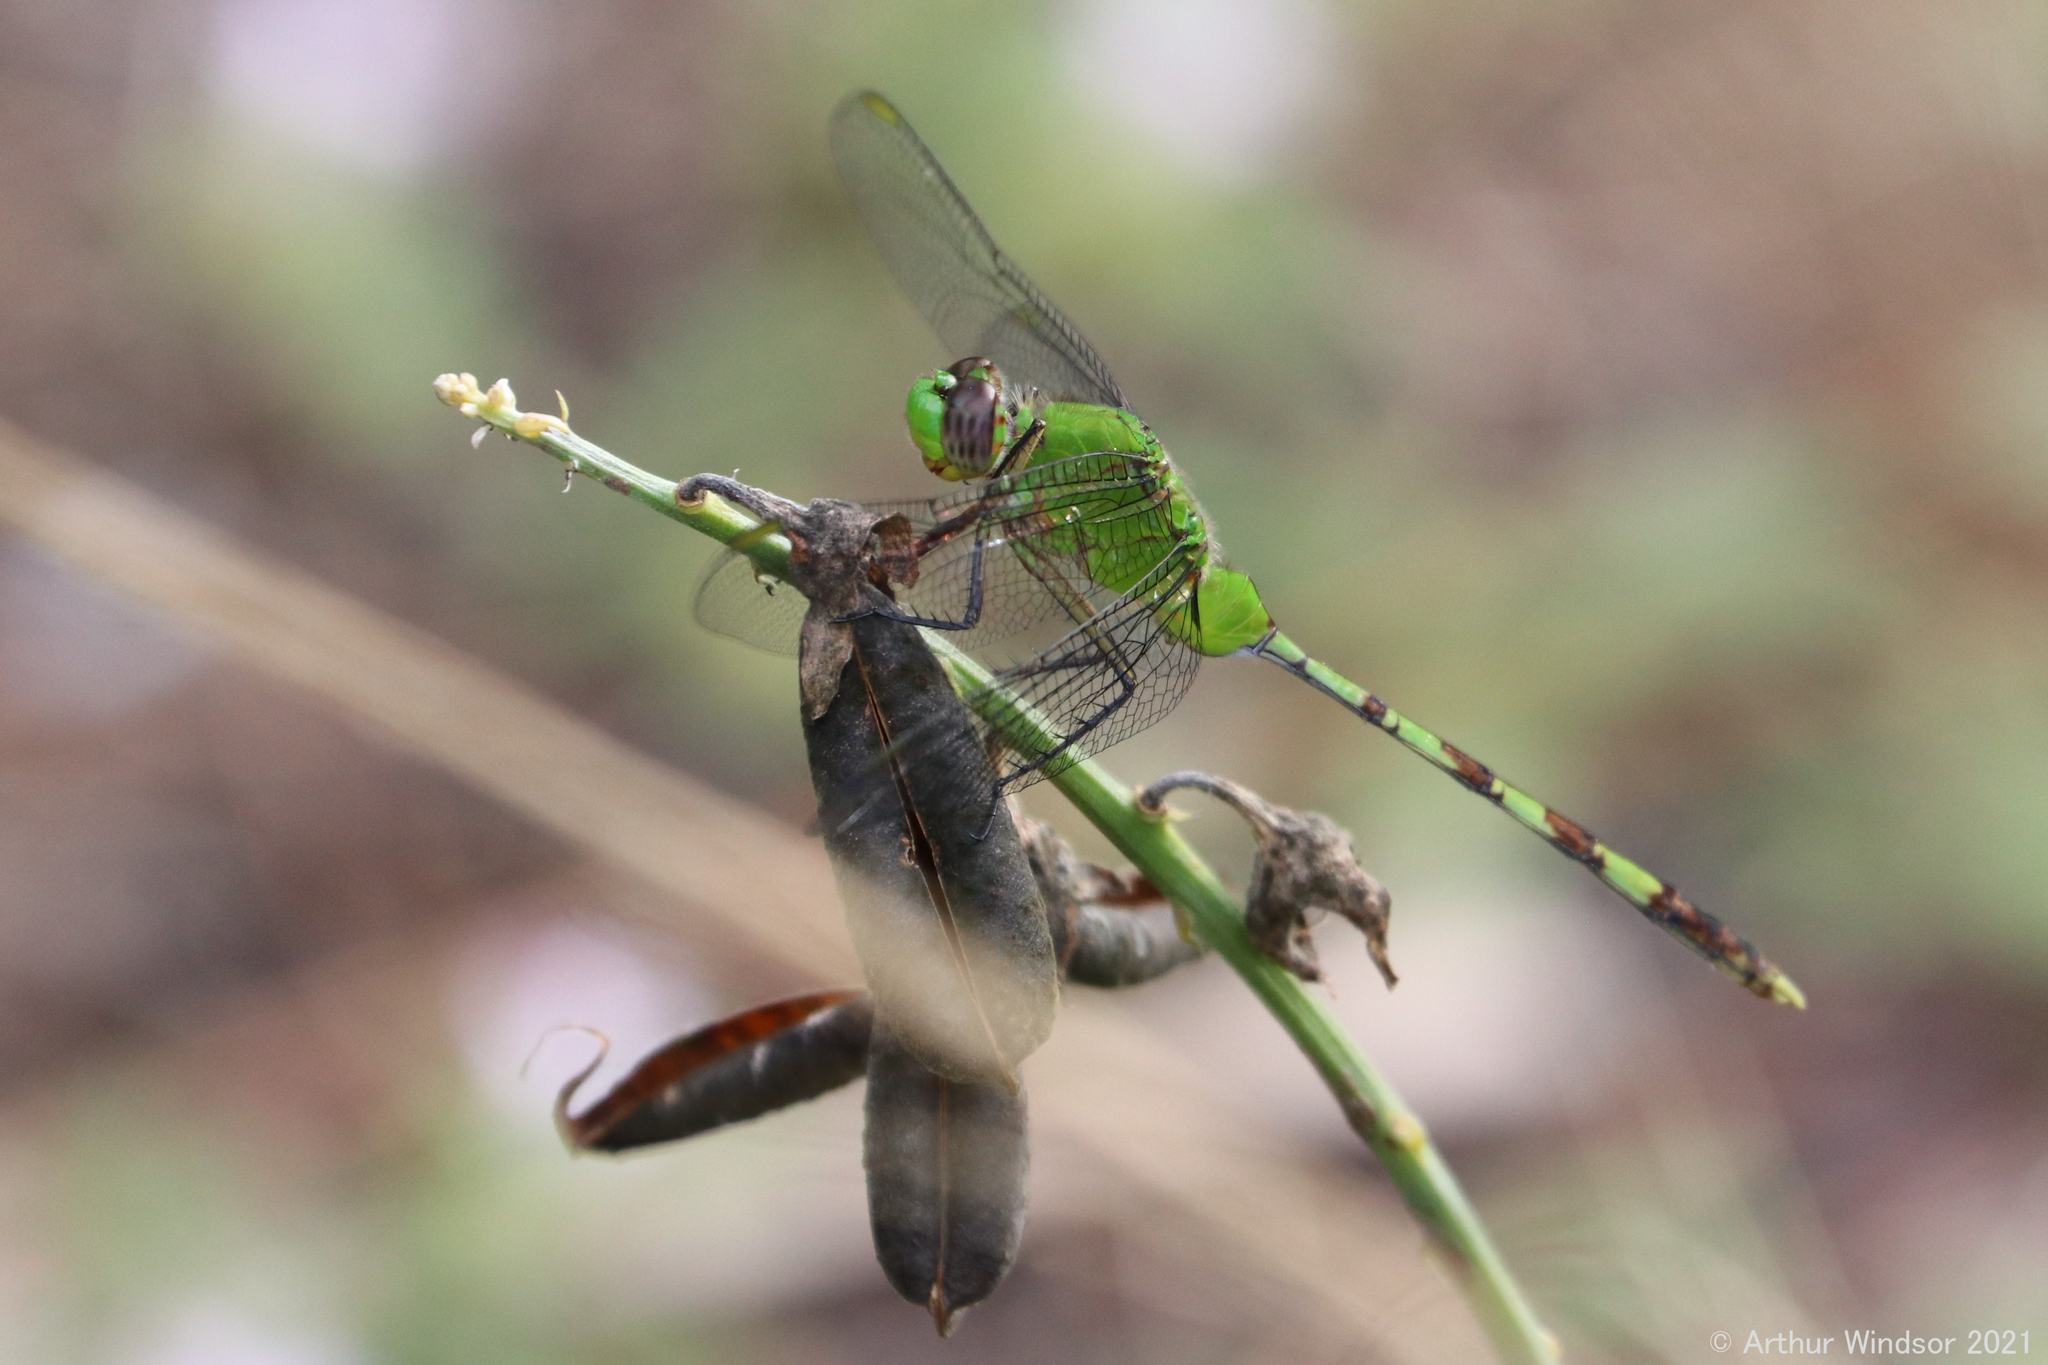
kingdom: Animalia
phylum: Arthropoda
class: Insecta
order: Odonata
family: Libellulidae
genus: Erythemis
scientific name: Erythemis vesiculosa
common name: Great pondhawk
